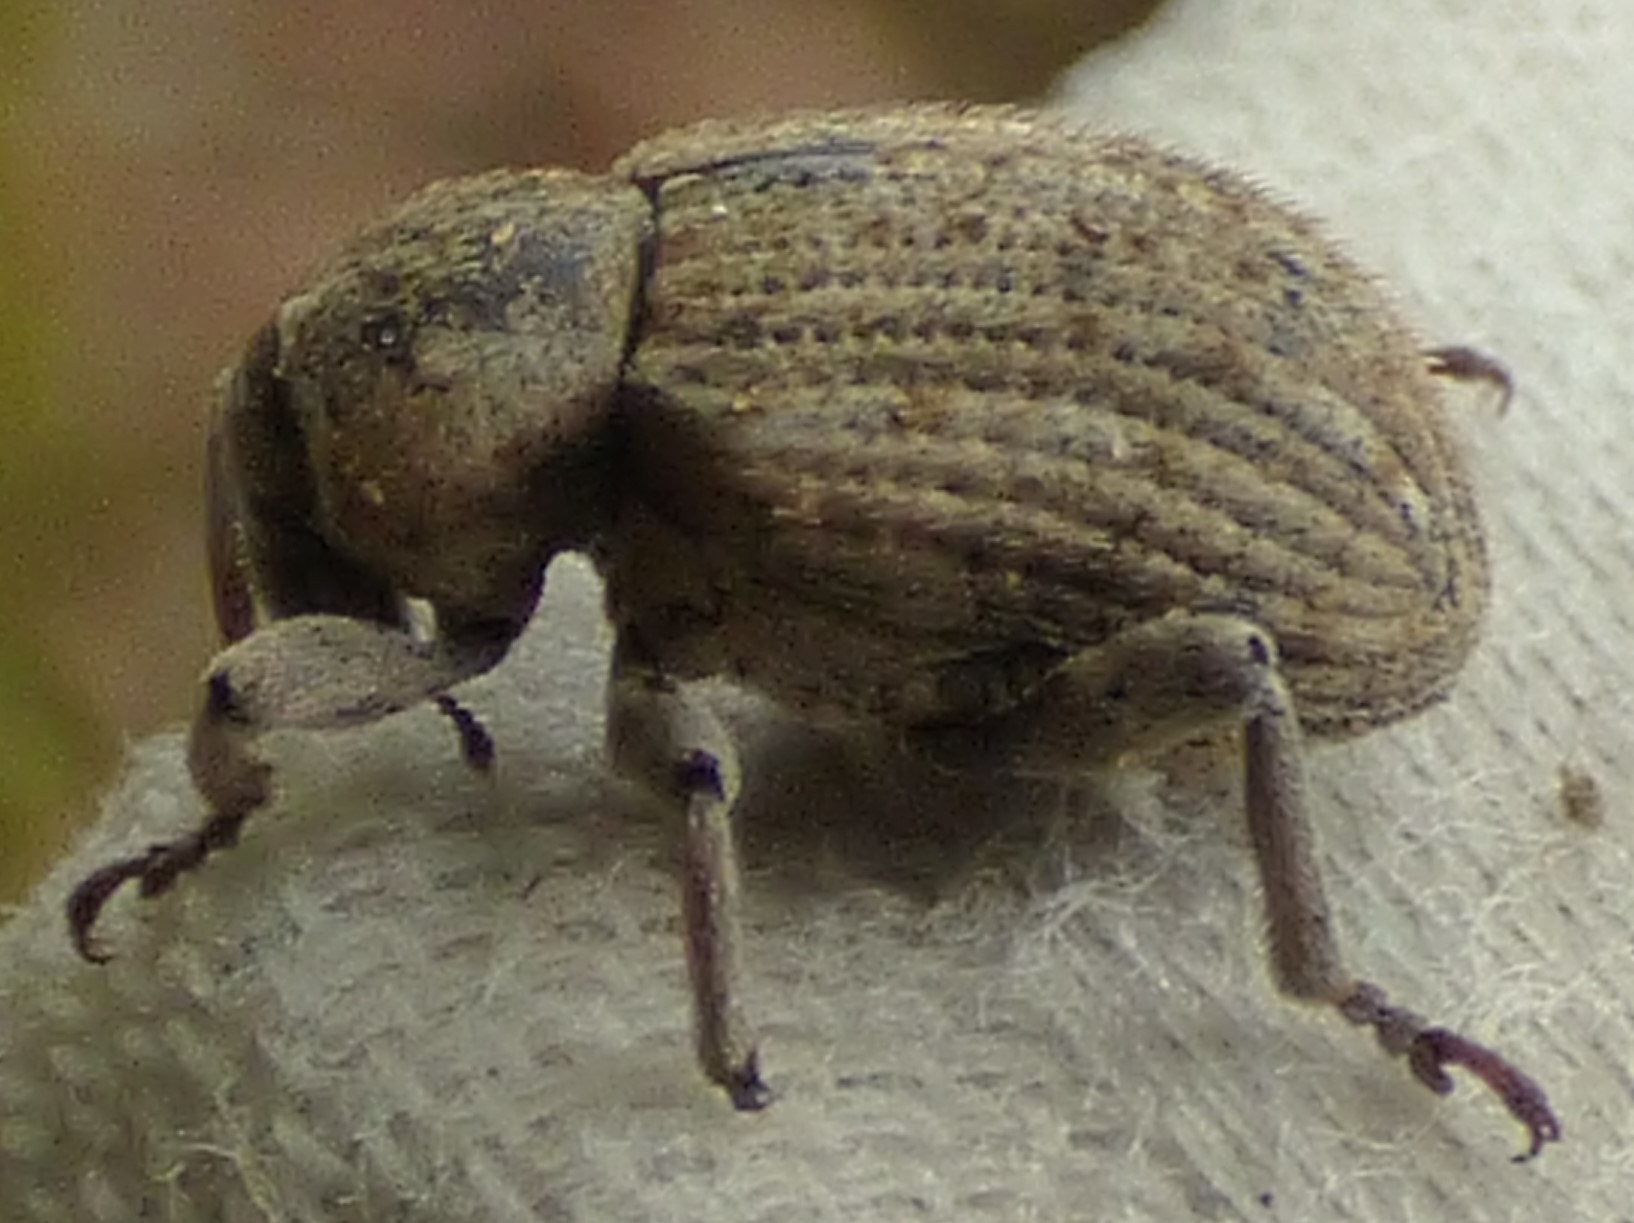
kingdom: Animalia
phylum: Arthropoda
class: Insecta
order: Coleoptera
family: Curculionidae
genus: Brachypera
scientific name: Brachypera zoilus
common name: Clover leaf weevil
